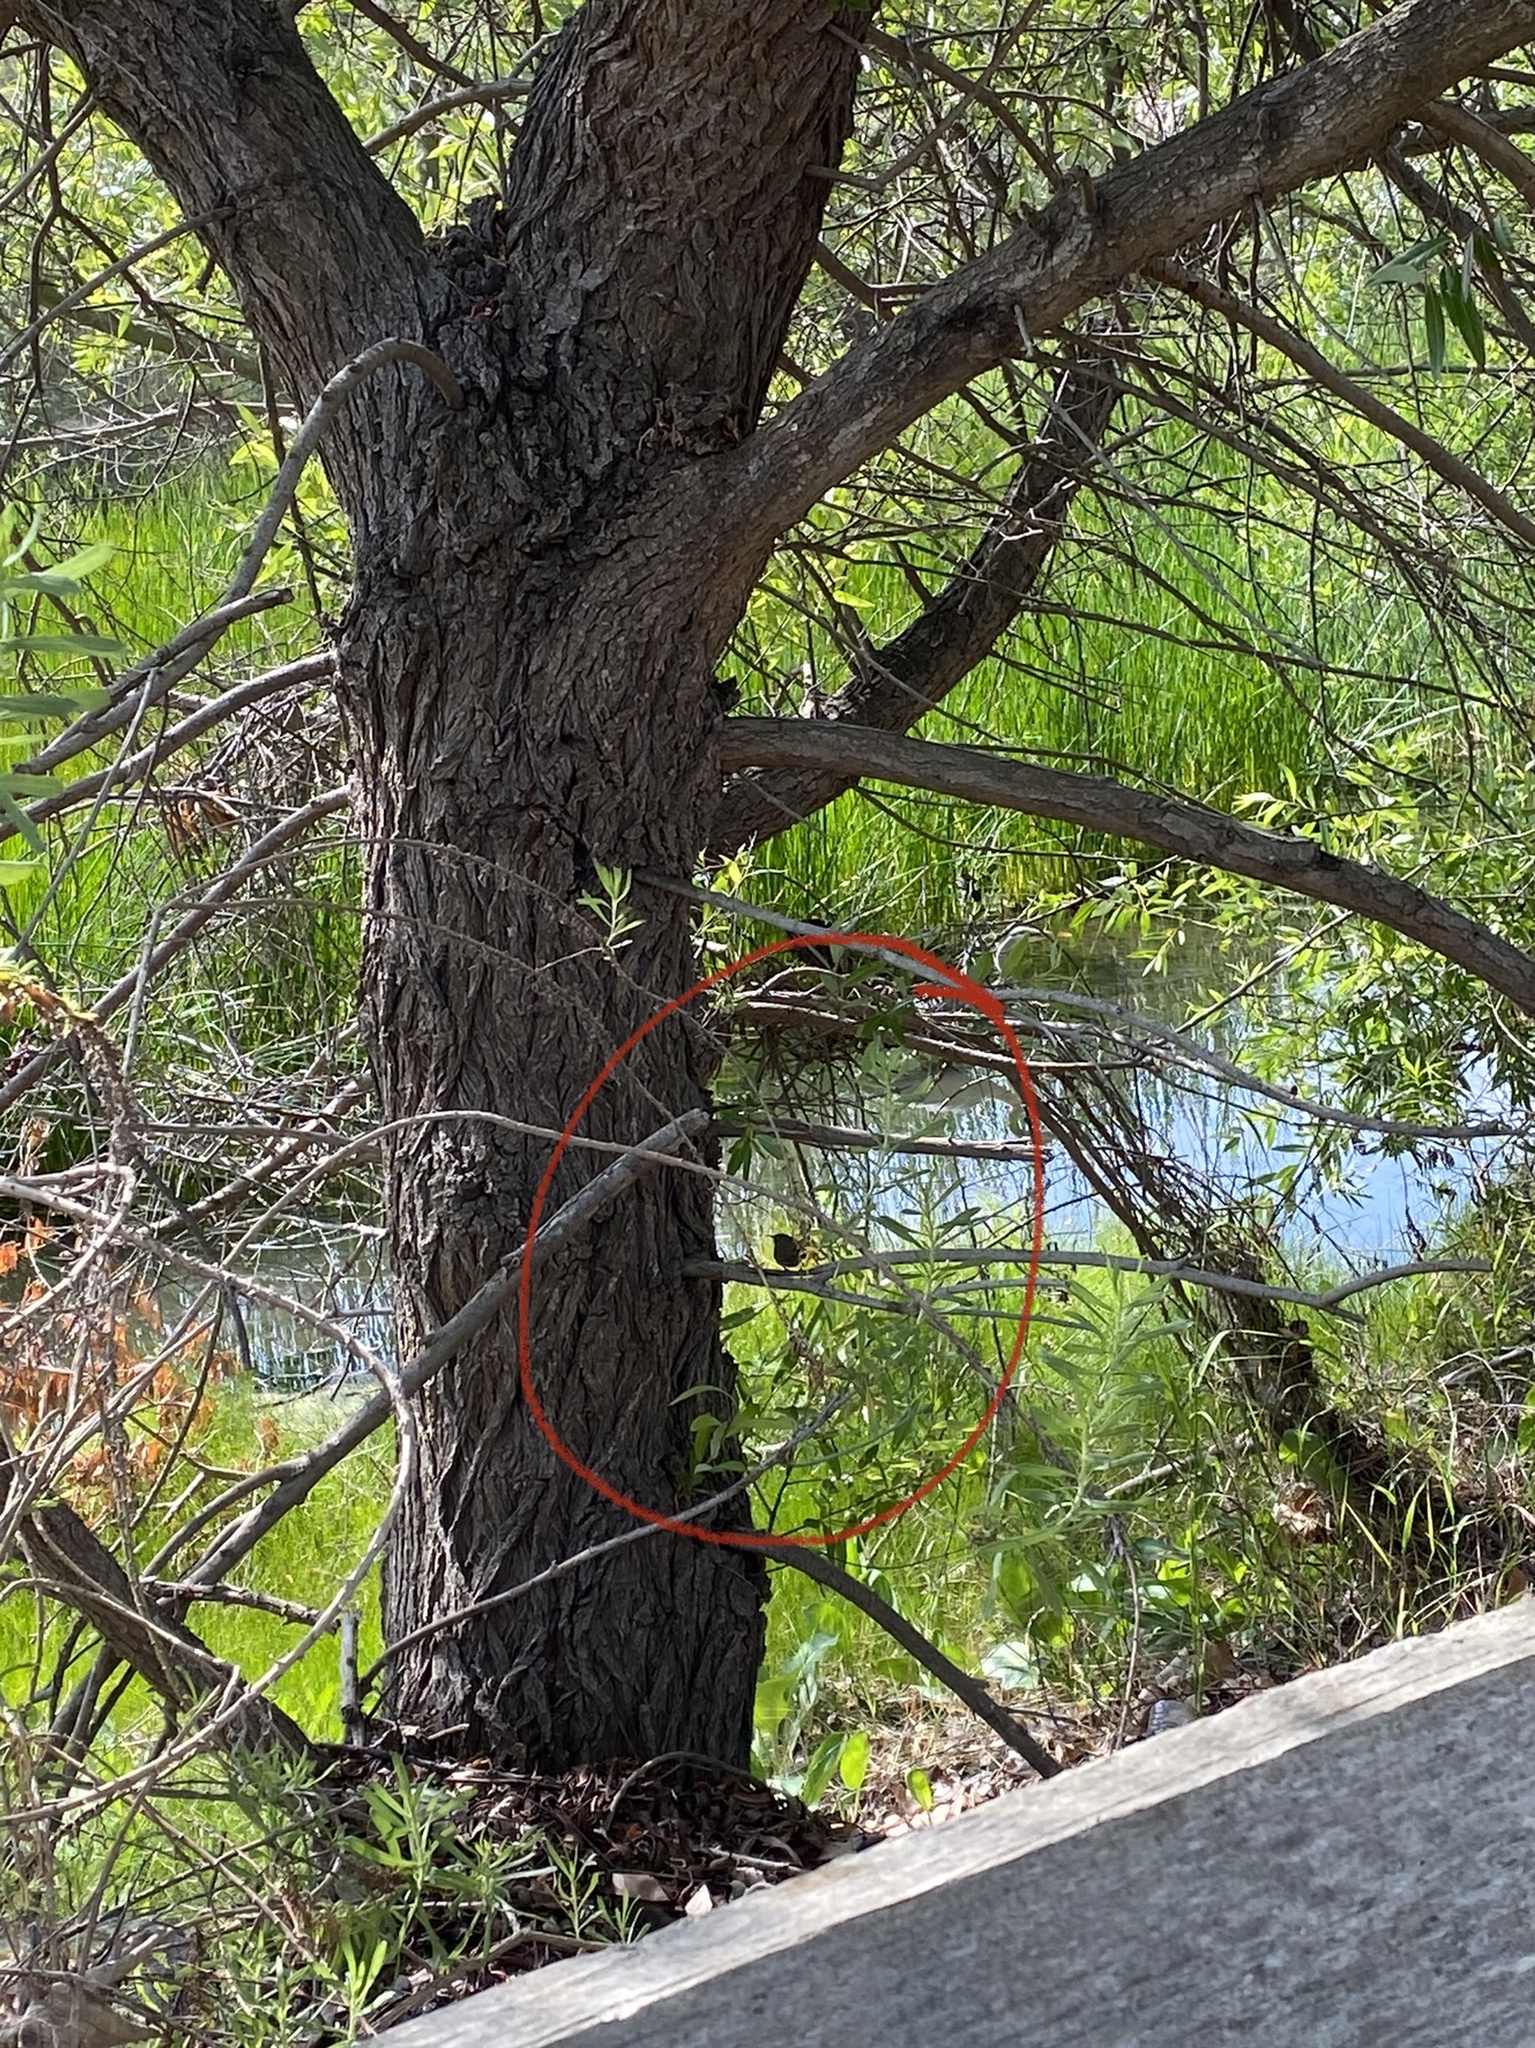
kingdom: Animalia
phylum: Chordata
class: Aves
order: Passeriformes
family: Troglodytidae
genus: Troglodytes
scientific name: Troglodytes aedon
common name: House wren
